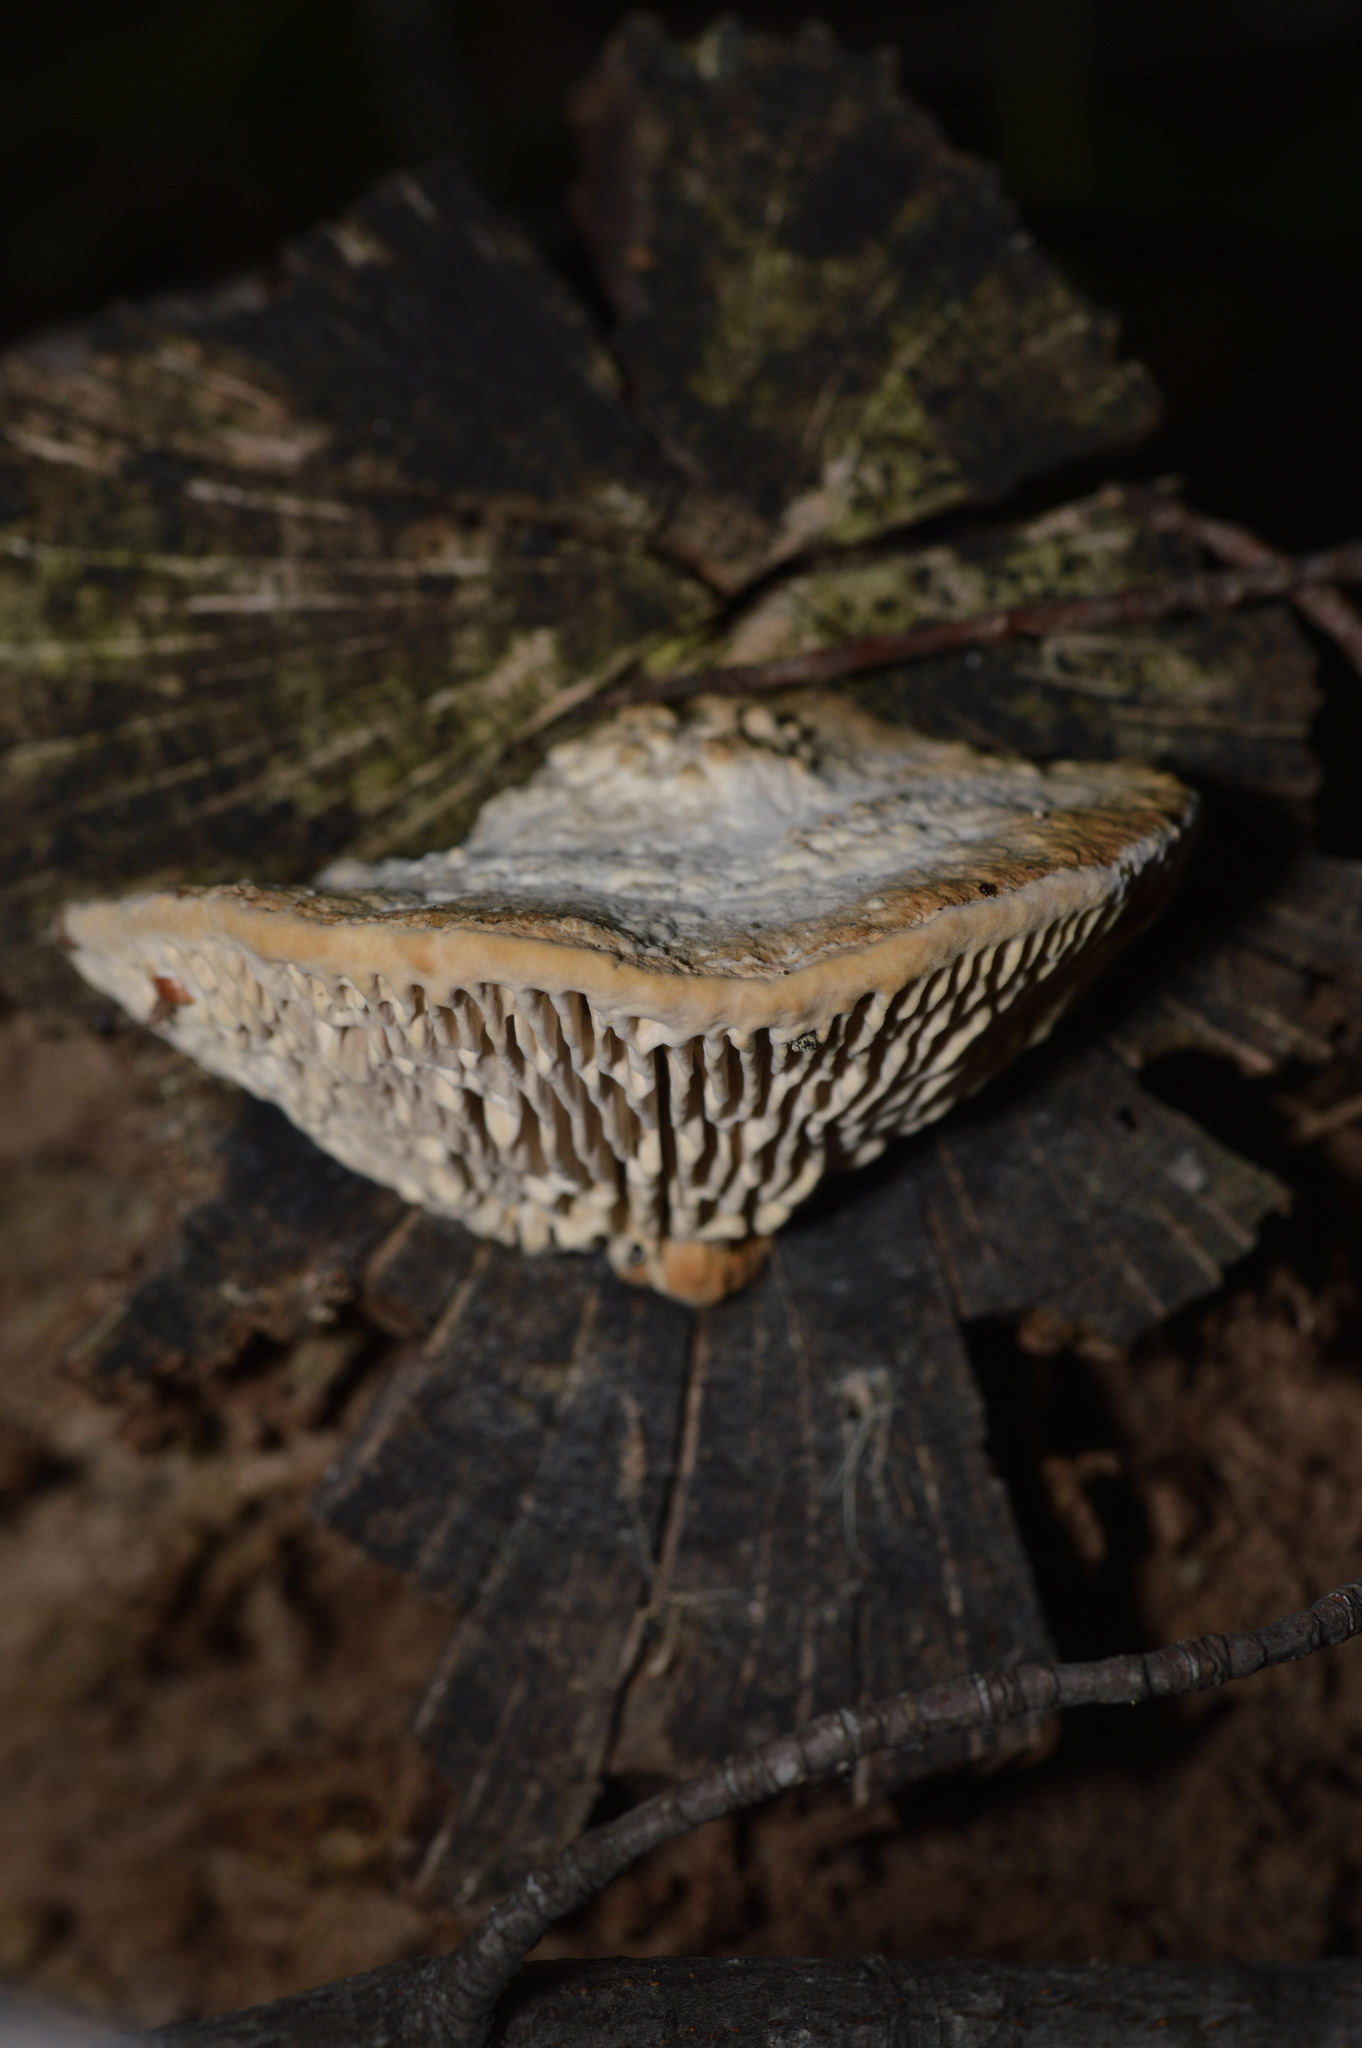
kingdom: Fungi
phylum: Basidiomycota
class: Agaricomycetes
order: Polyporales
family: Fomitopsidaceae
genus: Fomitopsis
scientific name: Fomitopsis
